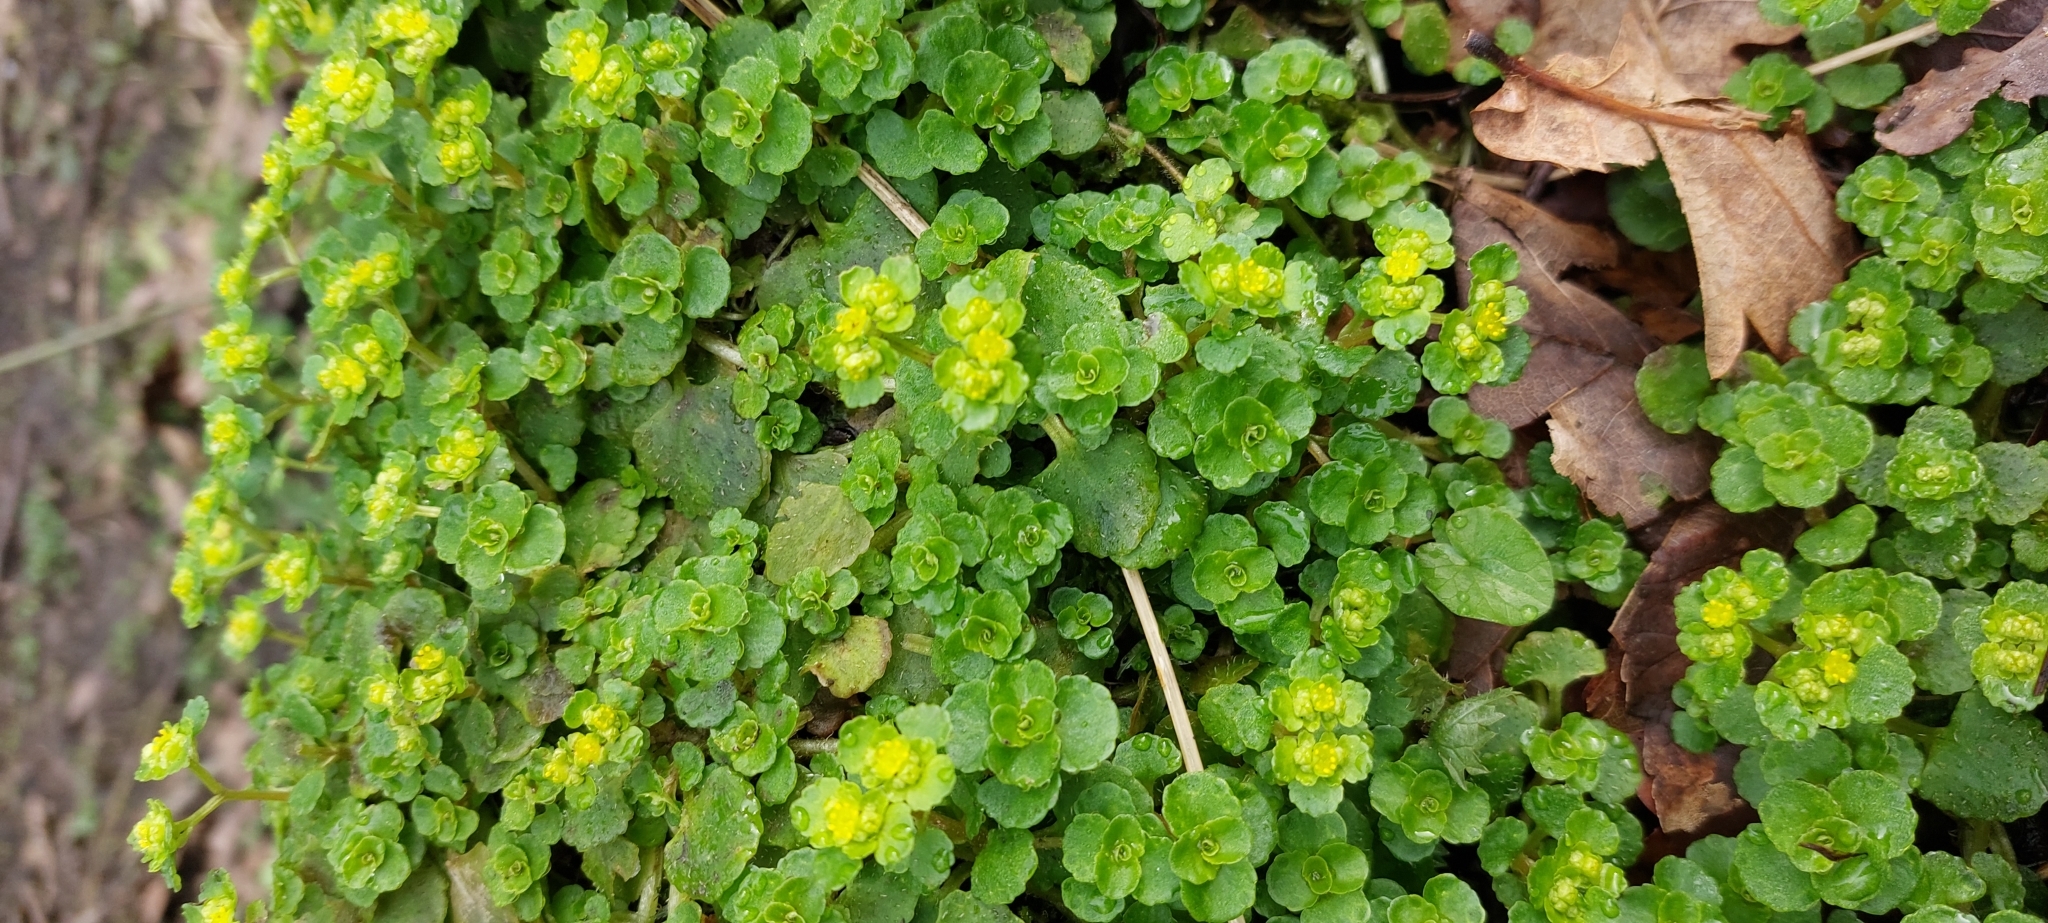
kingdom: Plantae
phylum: Tracheophyta
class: Magnoliopsida
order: Saxifragales
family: Saxifragaceae
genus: Chrysosplenium
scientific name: Chrysosplenium oppositifolium
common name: Opposite-leaved golden-saxifrage
